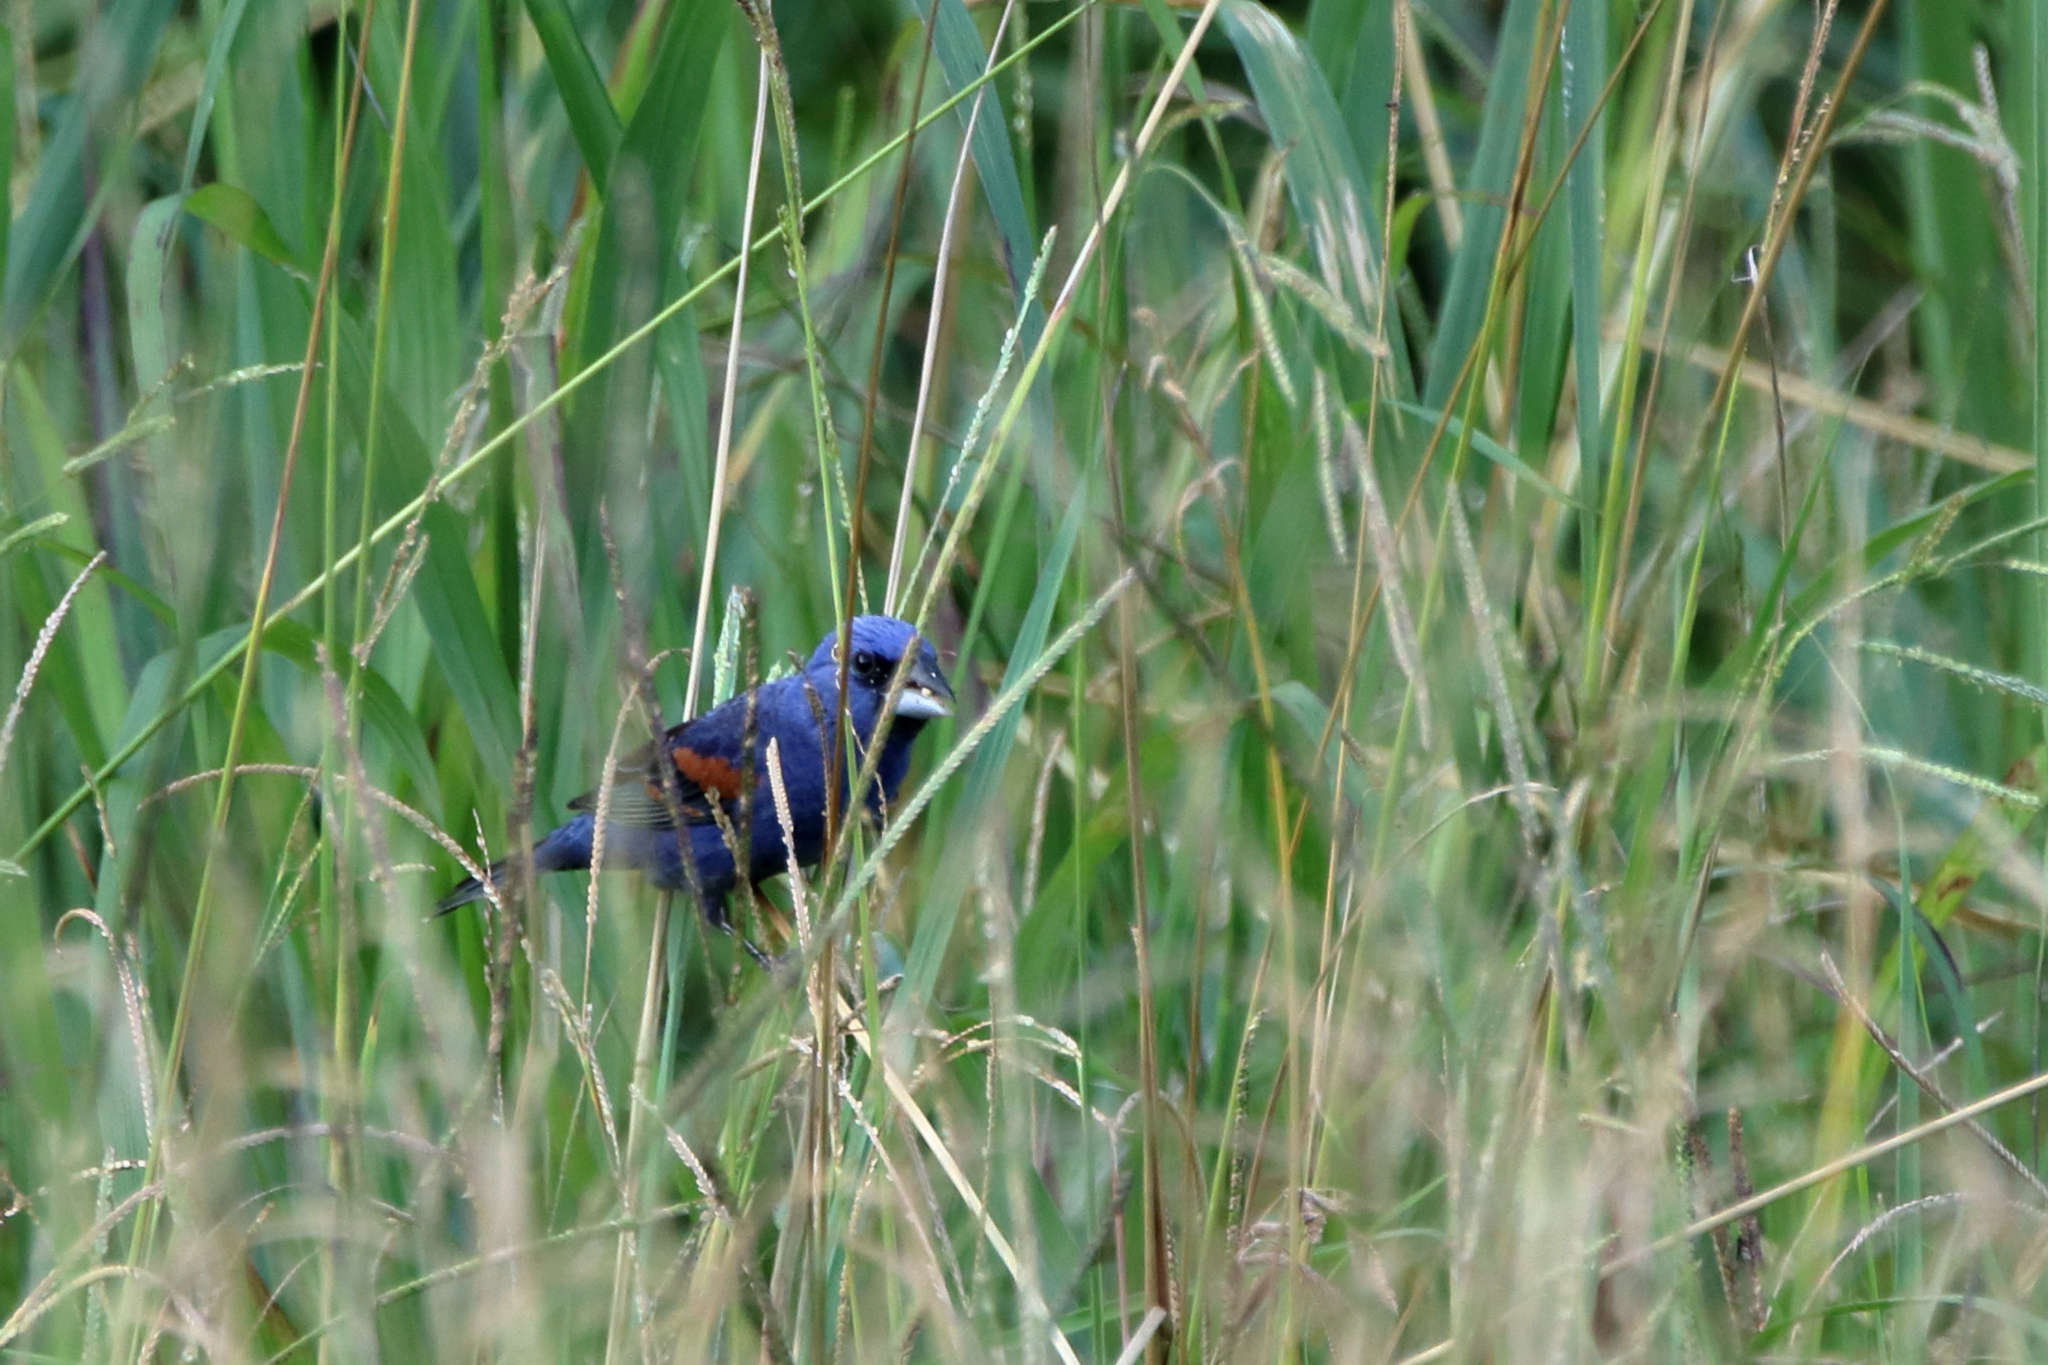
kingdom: Animalia
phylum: Chordata
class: Aves
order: Passeriformes
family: Cardinalidae
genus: Passerina
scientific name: Passerina caerulea
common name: Blue grosbeak
